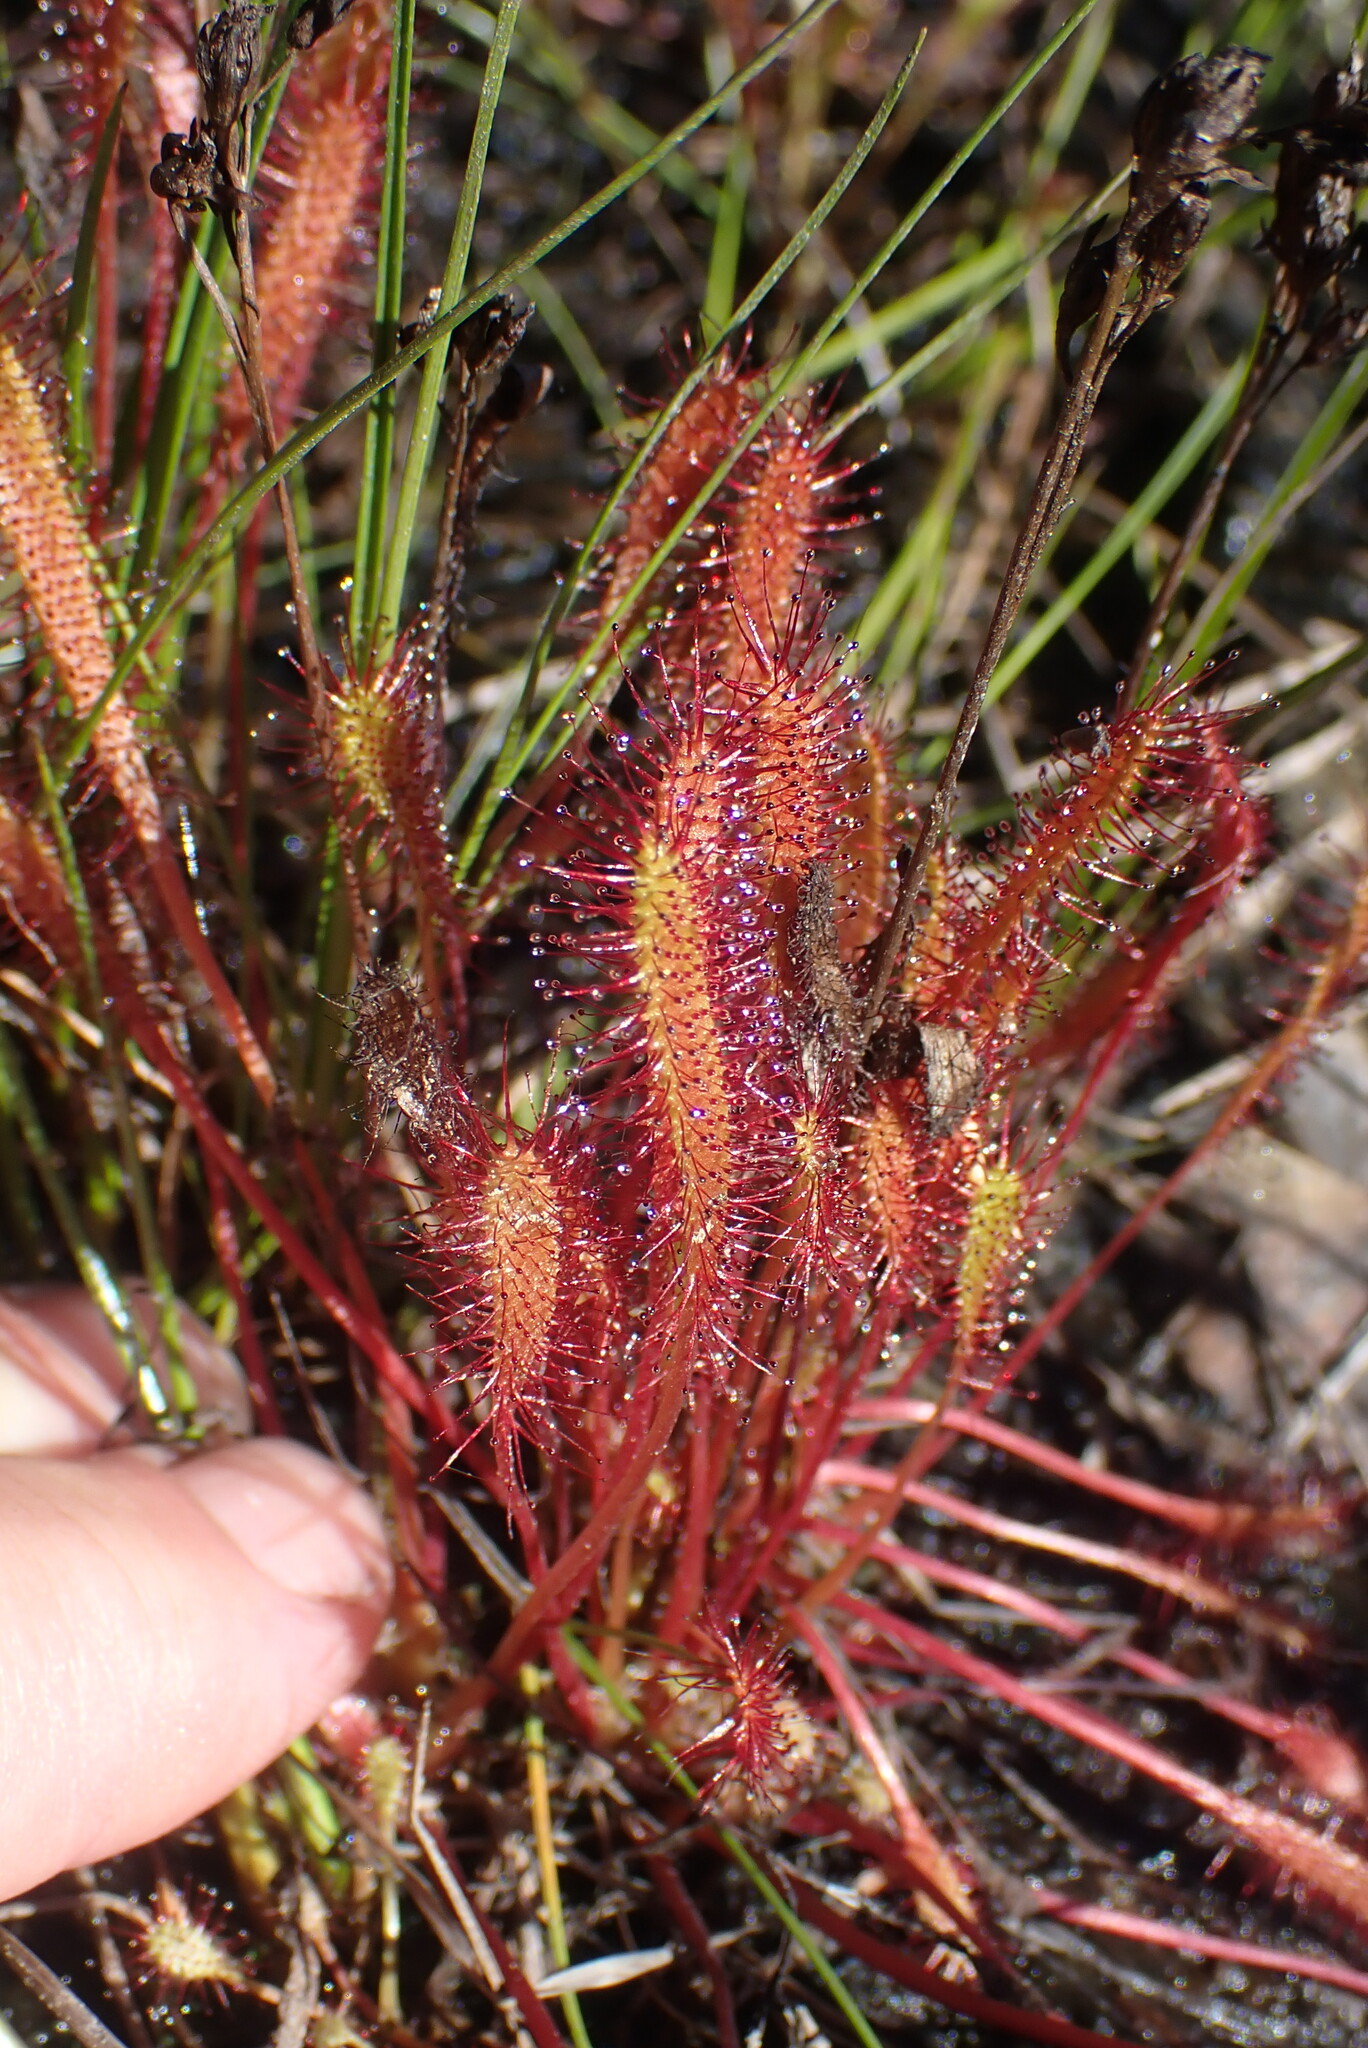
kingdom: Plantae
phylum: Tracheophyta
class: Magnoliopsida
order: Caryophyllales
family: Droseraceae
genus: Drosera
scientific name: Drosera anglica
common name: Great sundew
